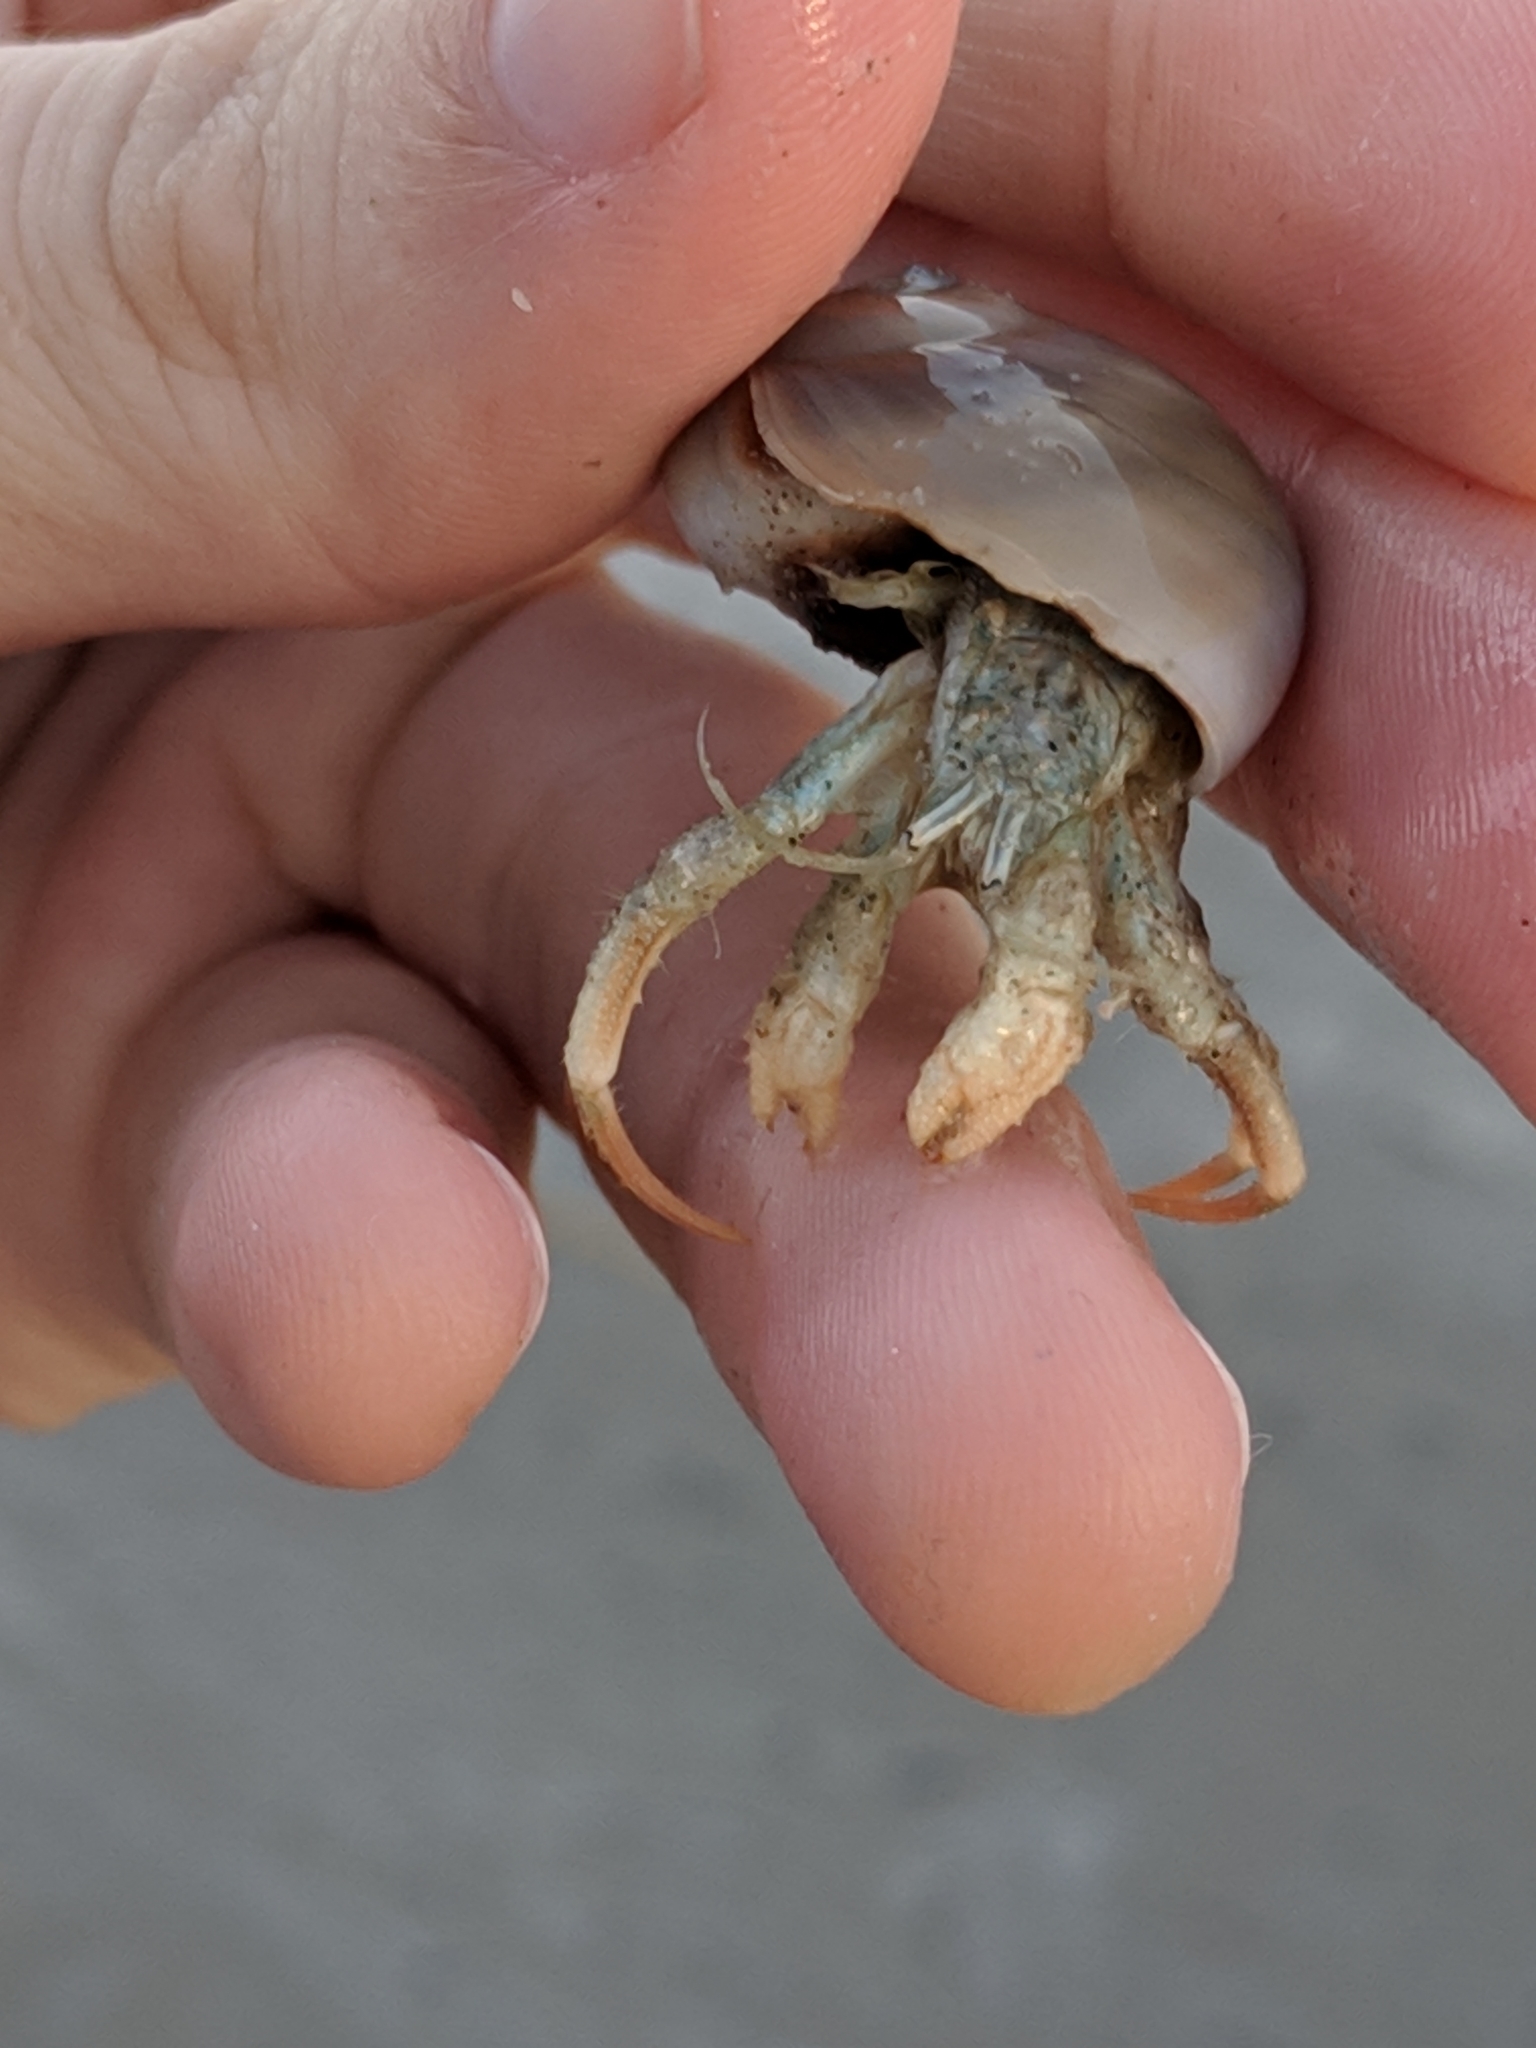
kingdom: Animalia
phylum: Arthropoda
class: Malacostraca
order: Decapoda
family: Diogenidae
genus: Isocheles
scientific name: Isocheles wurdemanni
